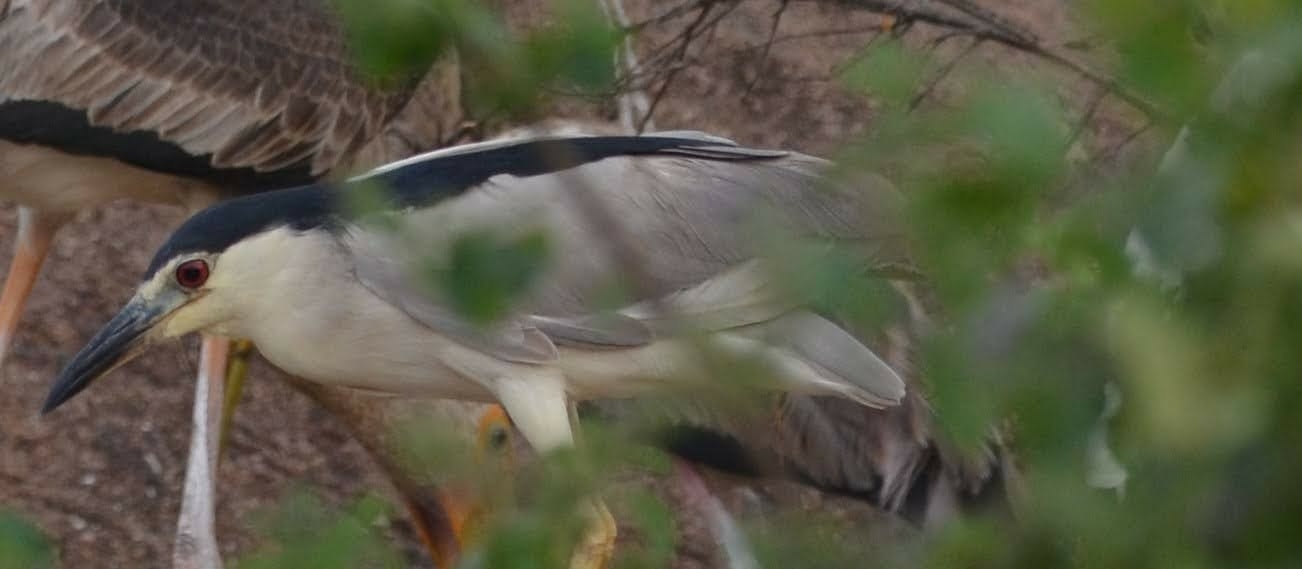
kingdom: Animalia
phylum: Chordata
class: Aves
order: Pelecaniformes
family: Ardeidae
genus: Nycticorax
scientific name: Nycticorax nycticorax
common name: Black-crowned night heron
